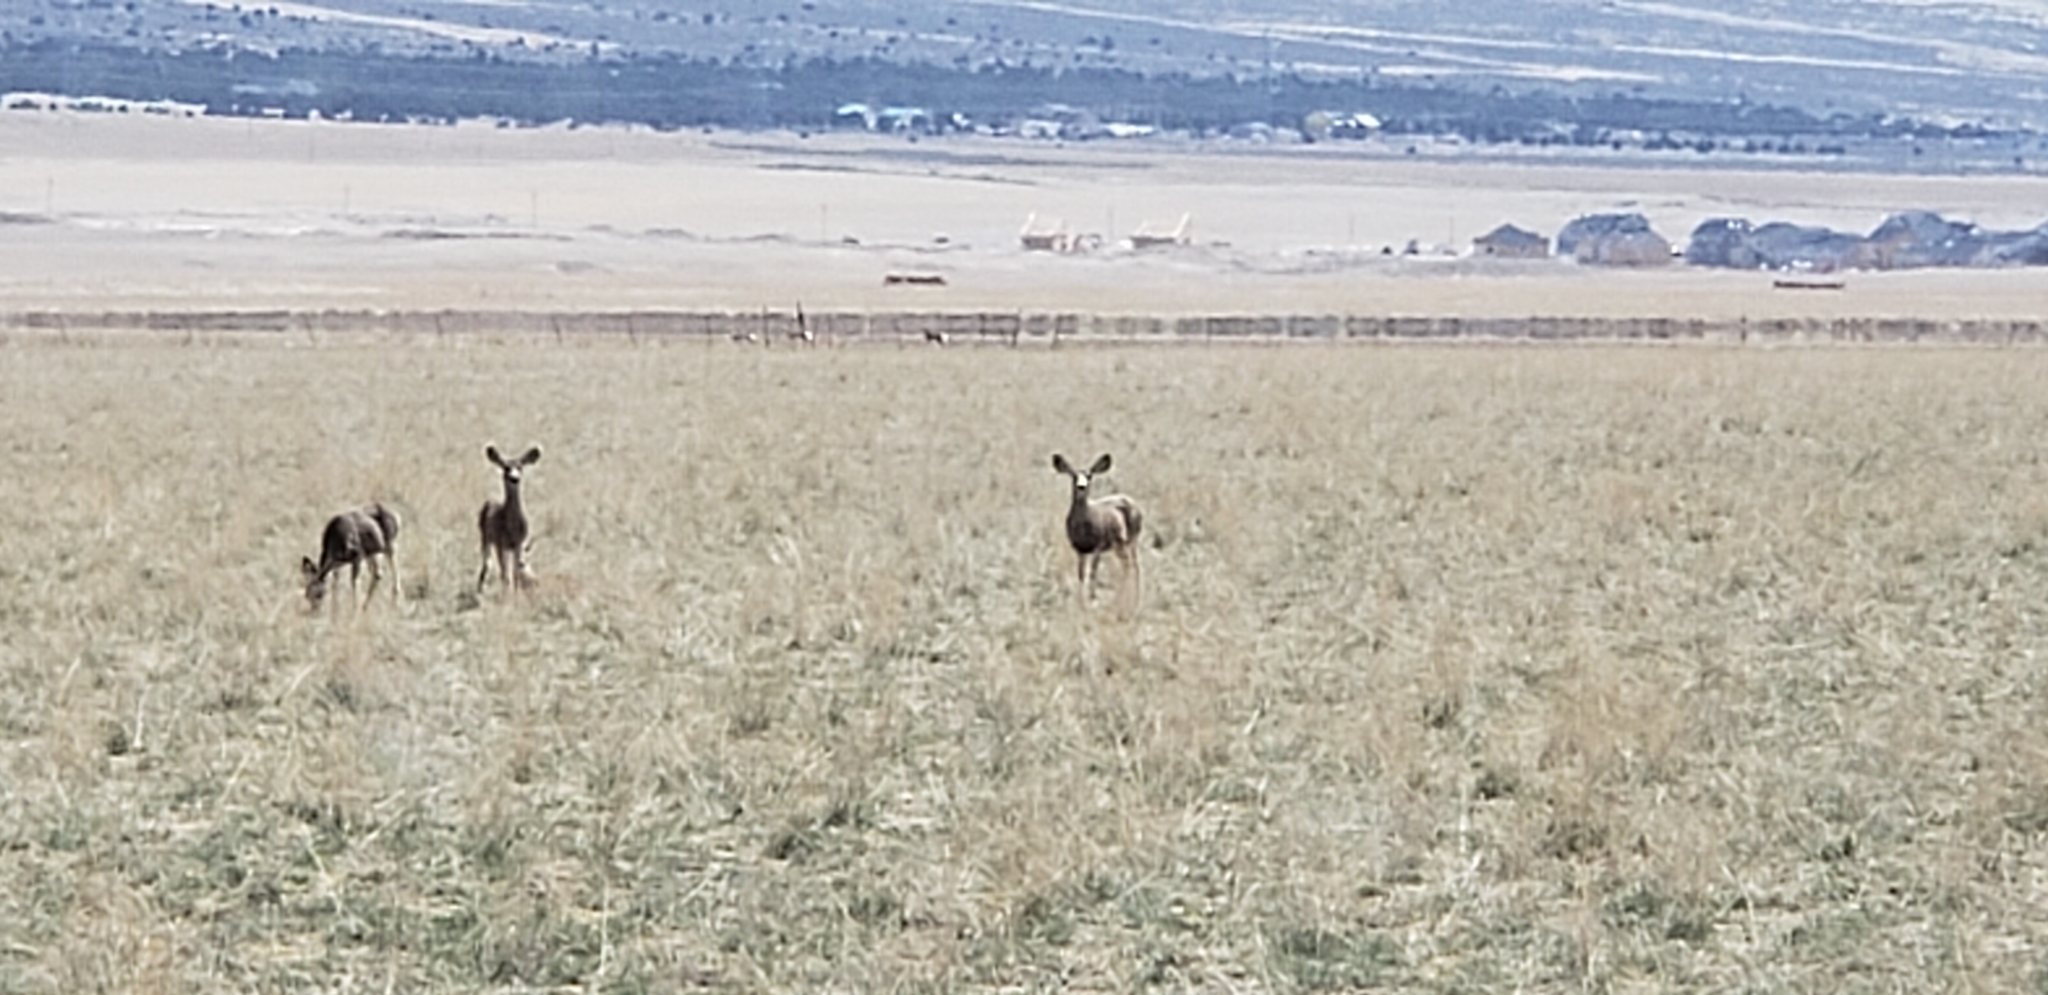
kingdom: Animalia
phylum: Chordata
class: Mammalia
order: Artiodactyla
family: Cervidae
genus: Odocoileus
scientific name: Odocoileus hemionus
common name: Mule deer
